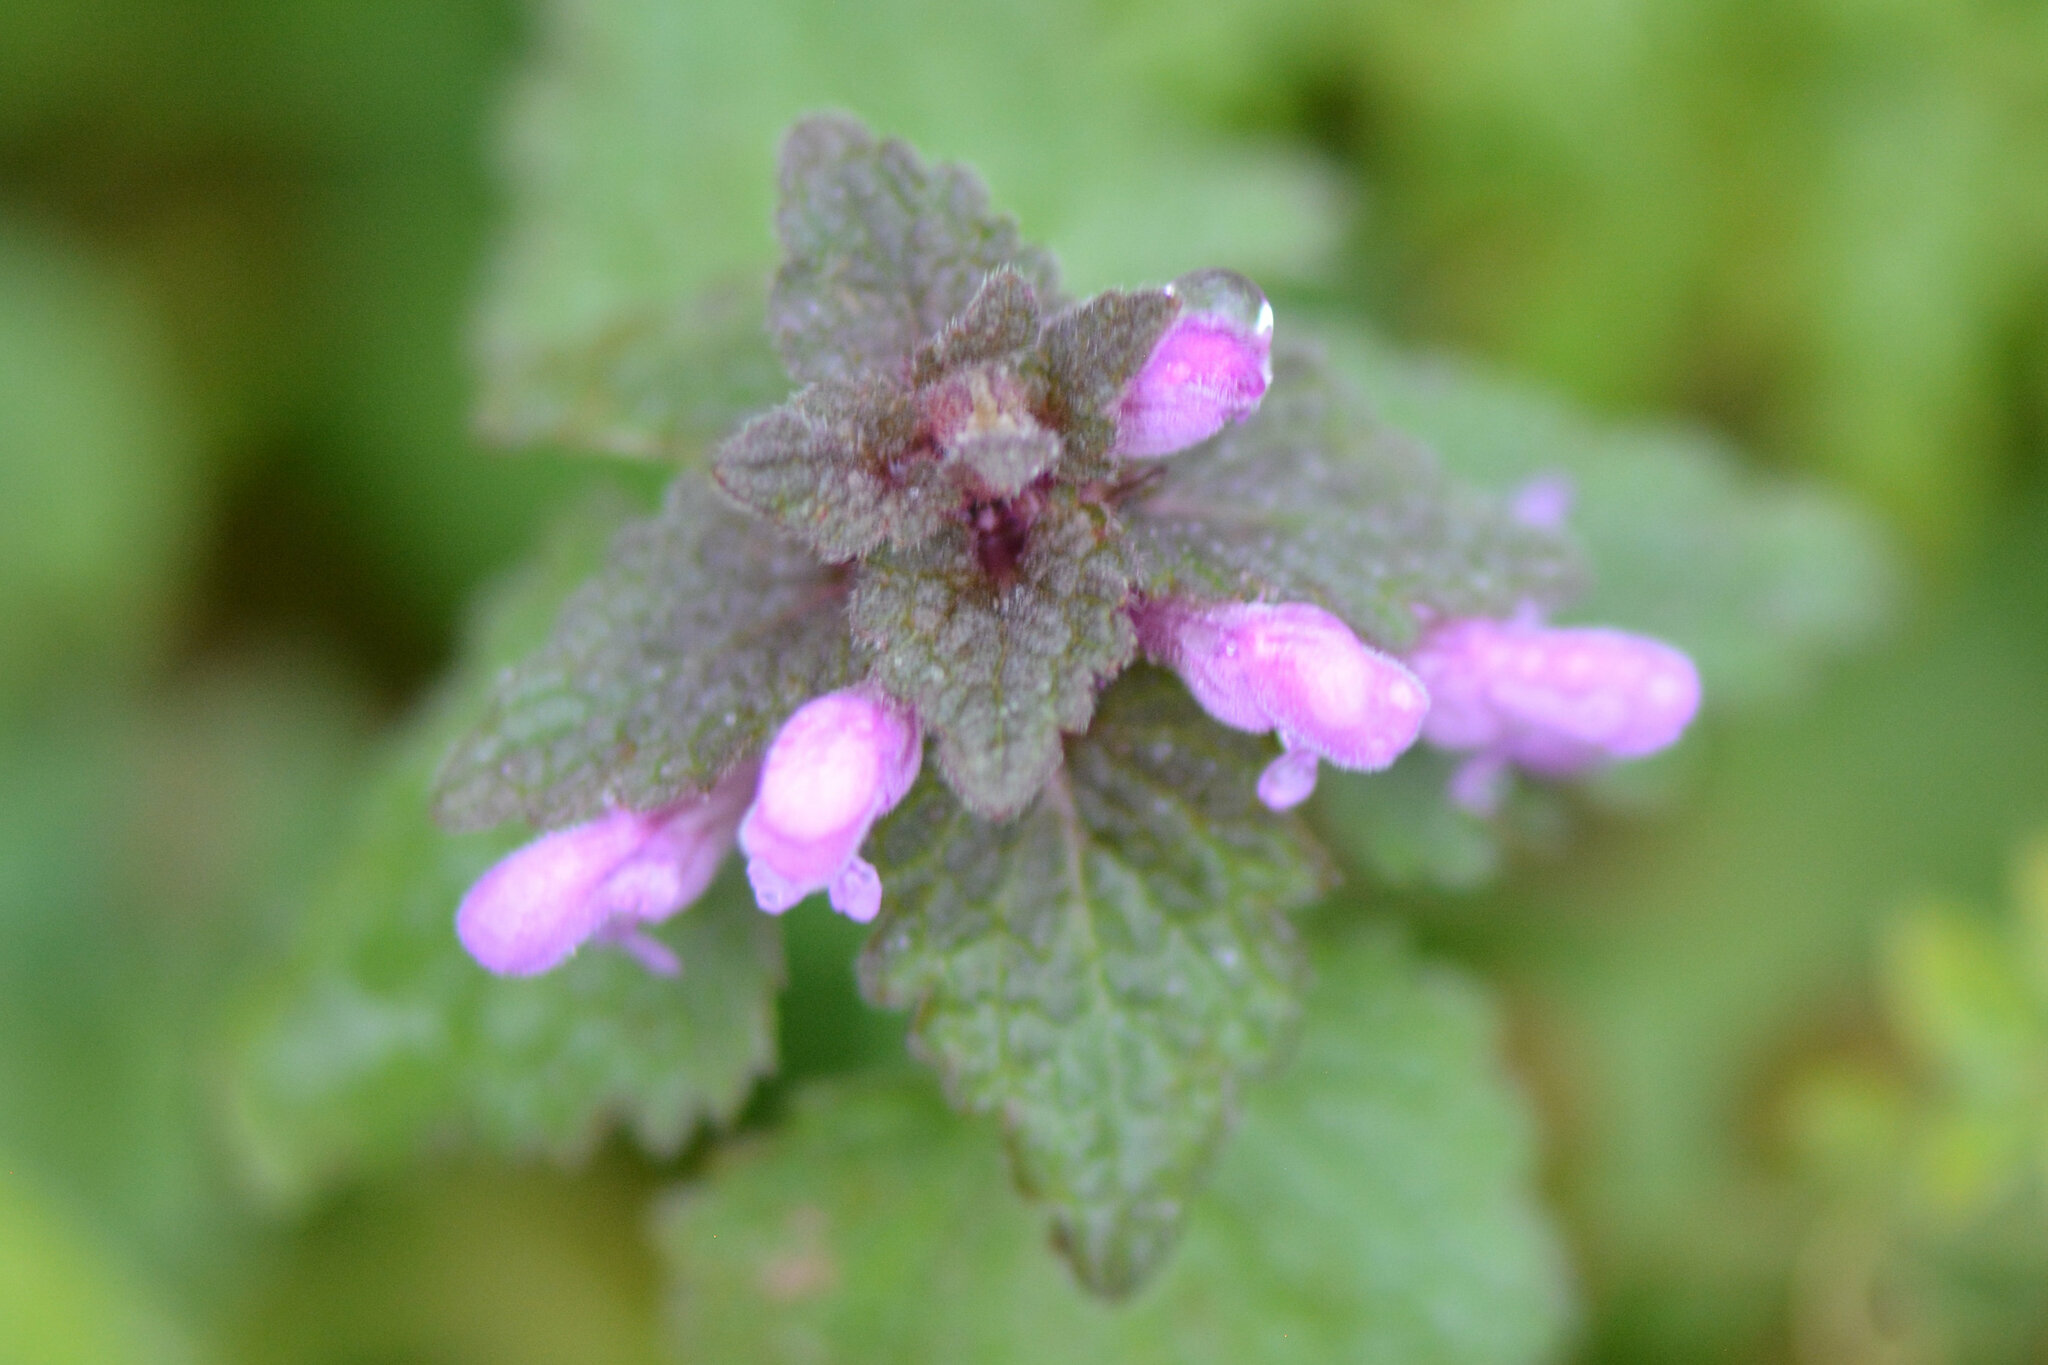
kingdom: Plantae
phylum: Tracheophyta
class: Magnoliopsida
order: Lamiales
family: Lamiaceae
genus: Lamium
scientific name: Lamium purpureum
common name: Red dead-nettle
